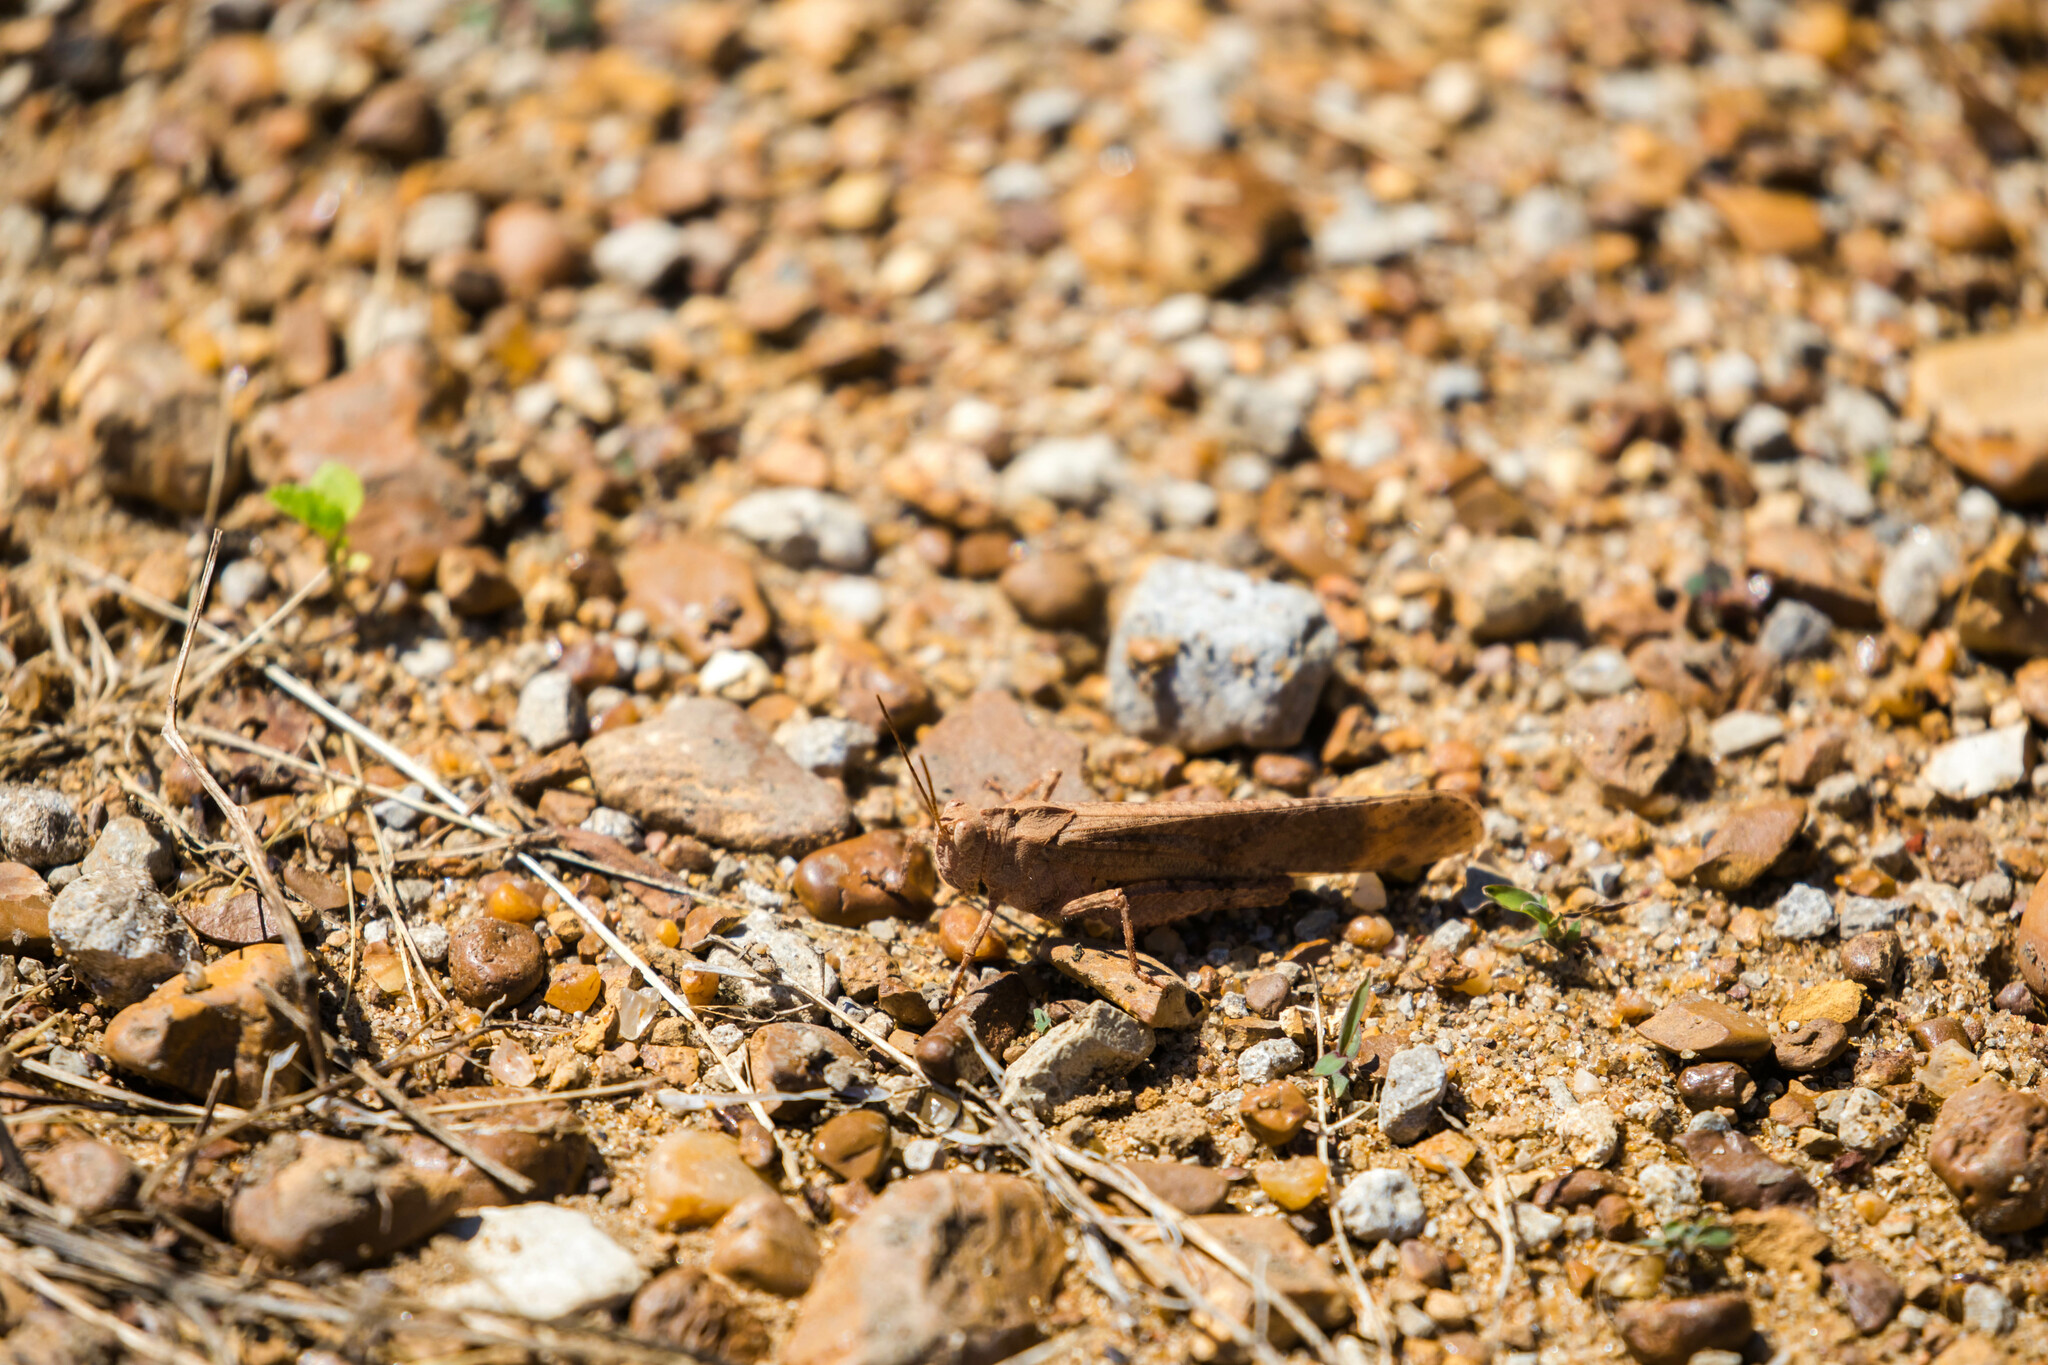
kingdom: Animalia
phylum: Arthropoda
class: Insecta
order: Orthoptera
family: Acrididae
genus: Dissosteira
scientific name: Dissosteira carolina
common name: Carolina grasshopper
